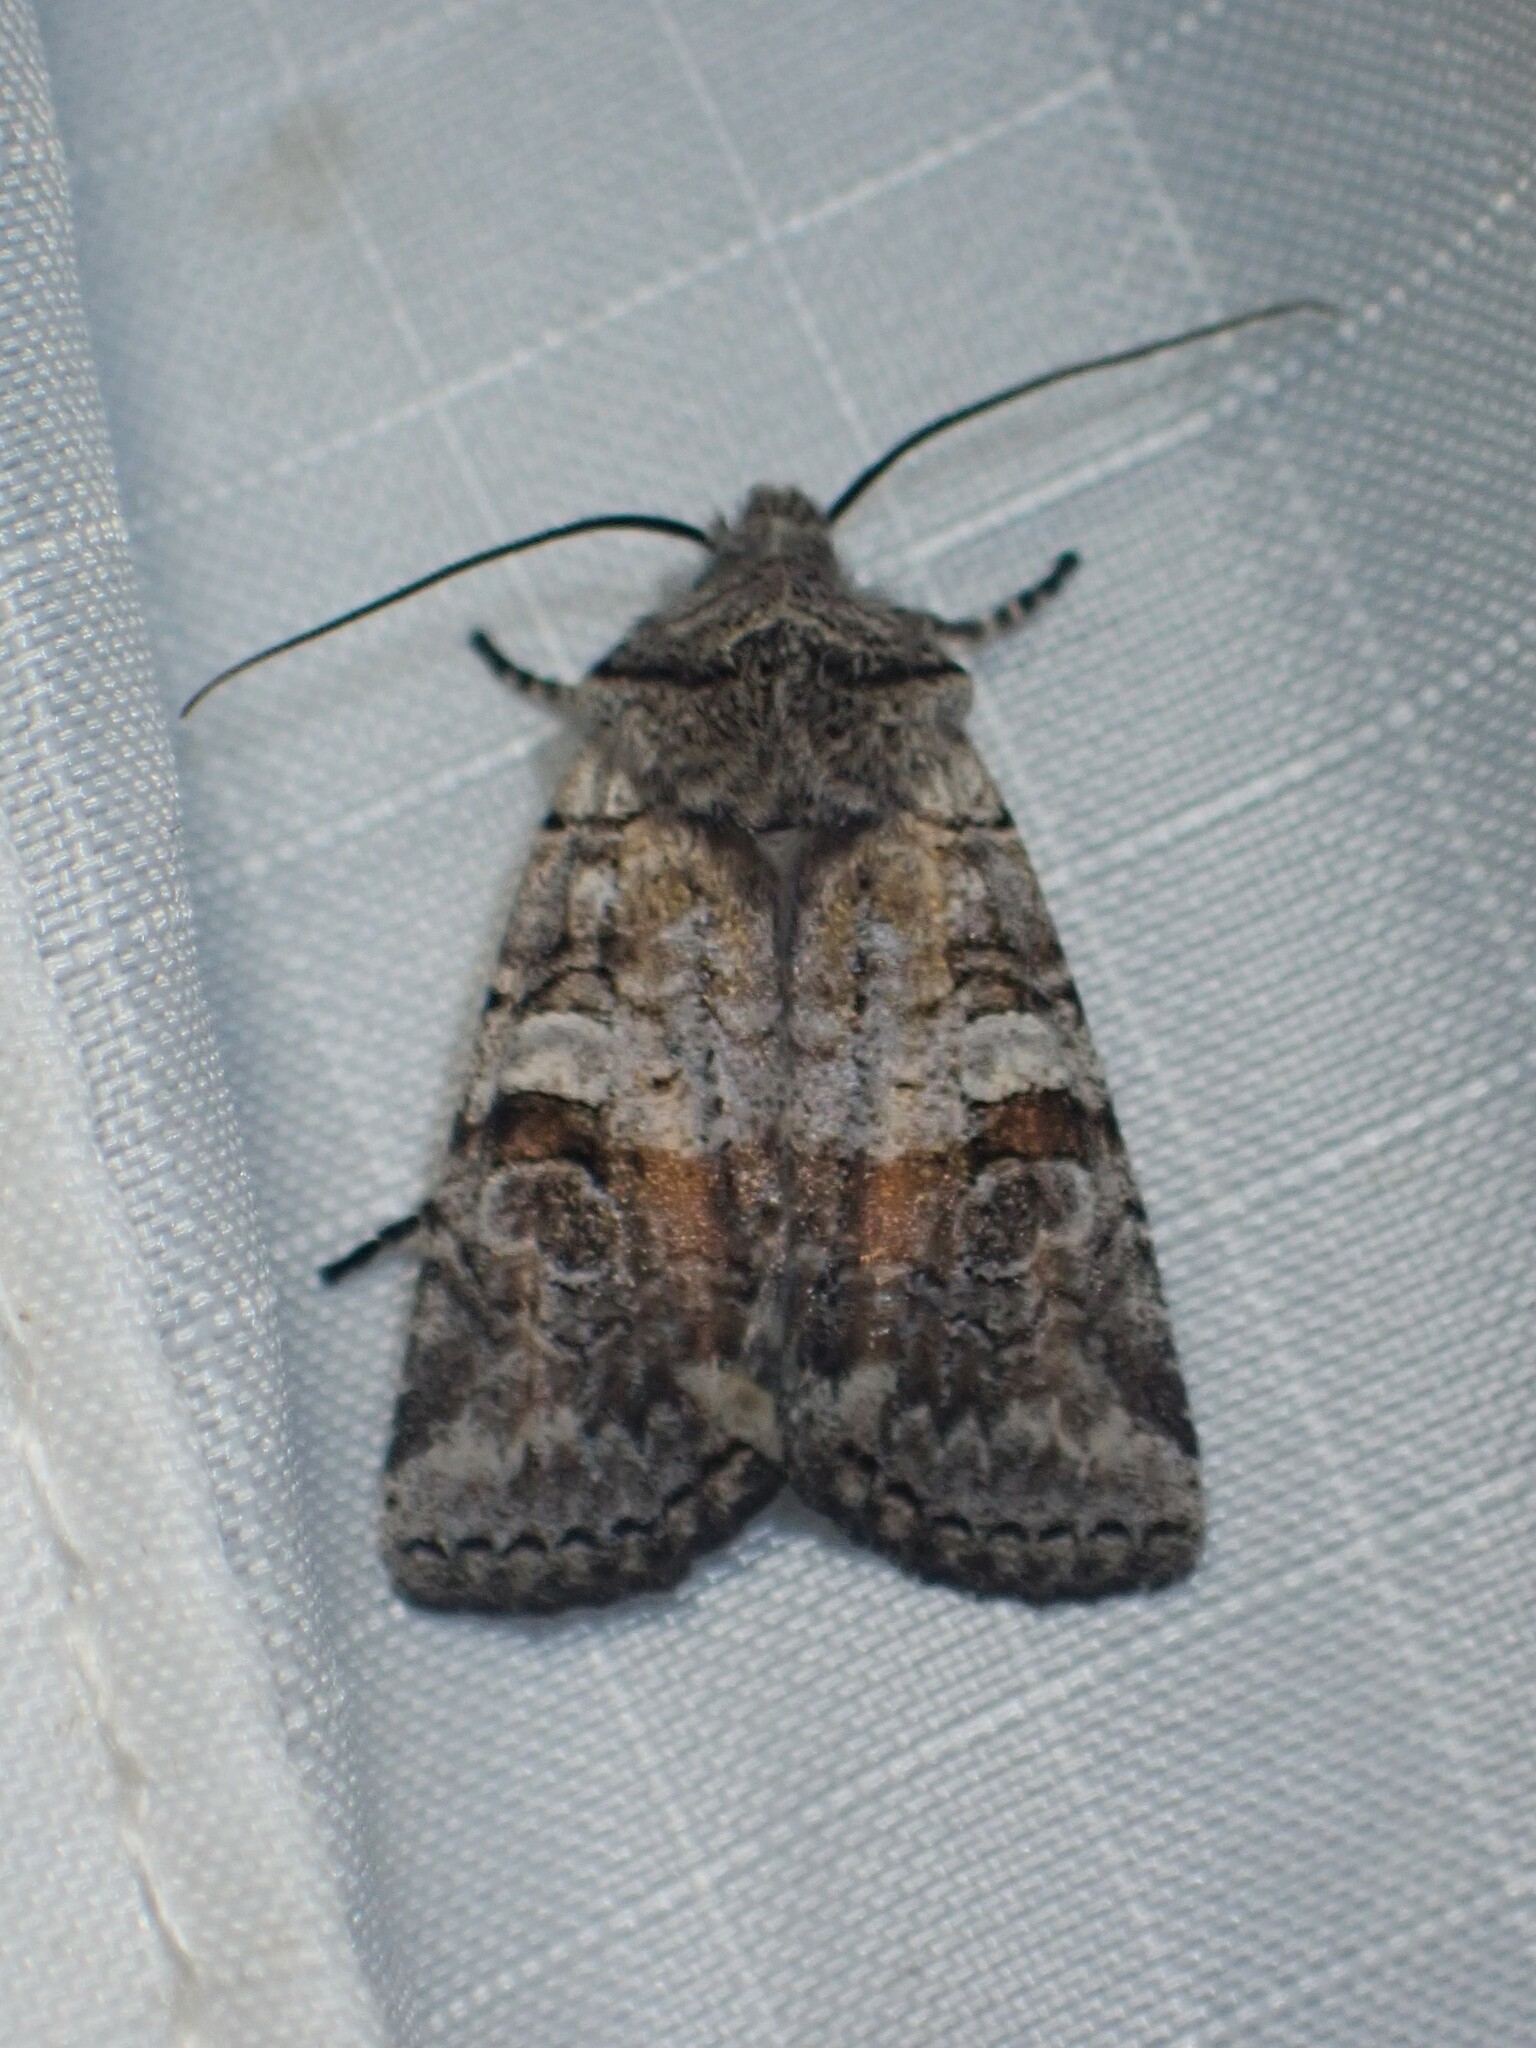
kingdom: Animalia
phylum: Arthropoda
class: Insecta
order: Lepidoptera
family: Noctuidae
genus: Litholomia
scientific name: Litholomia napaea
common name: False pinion moth
